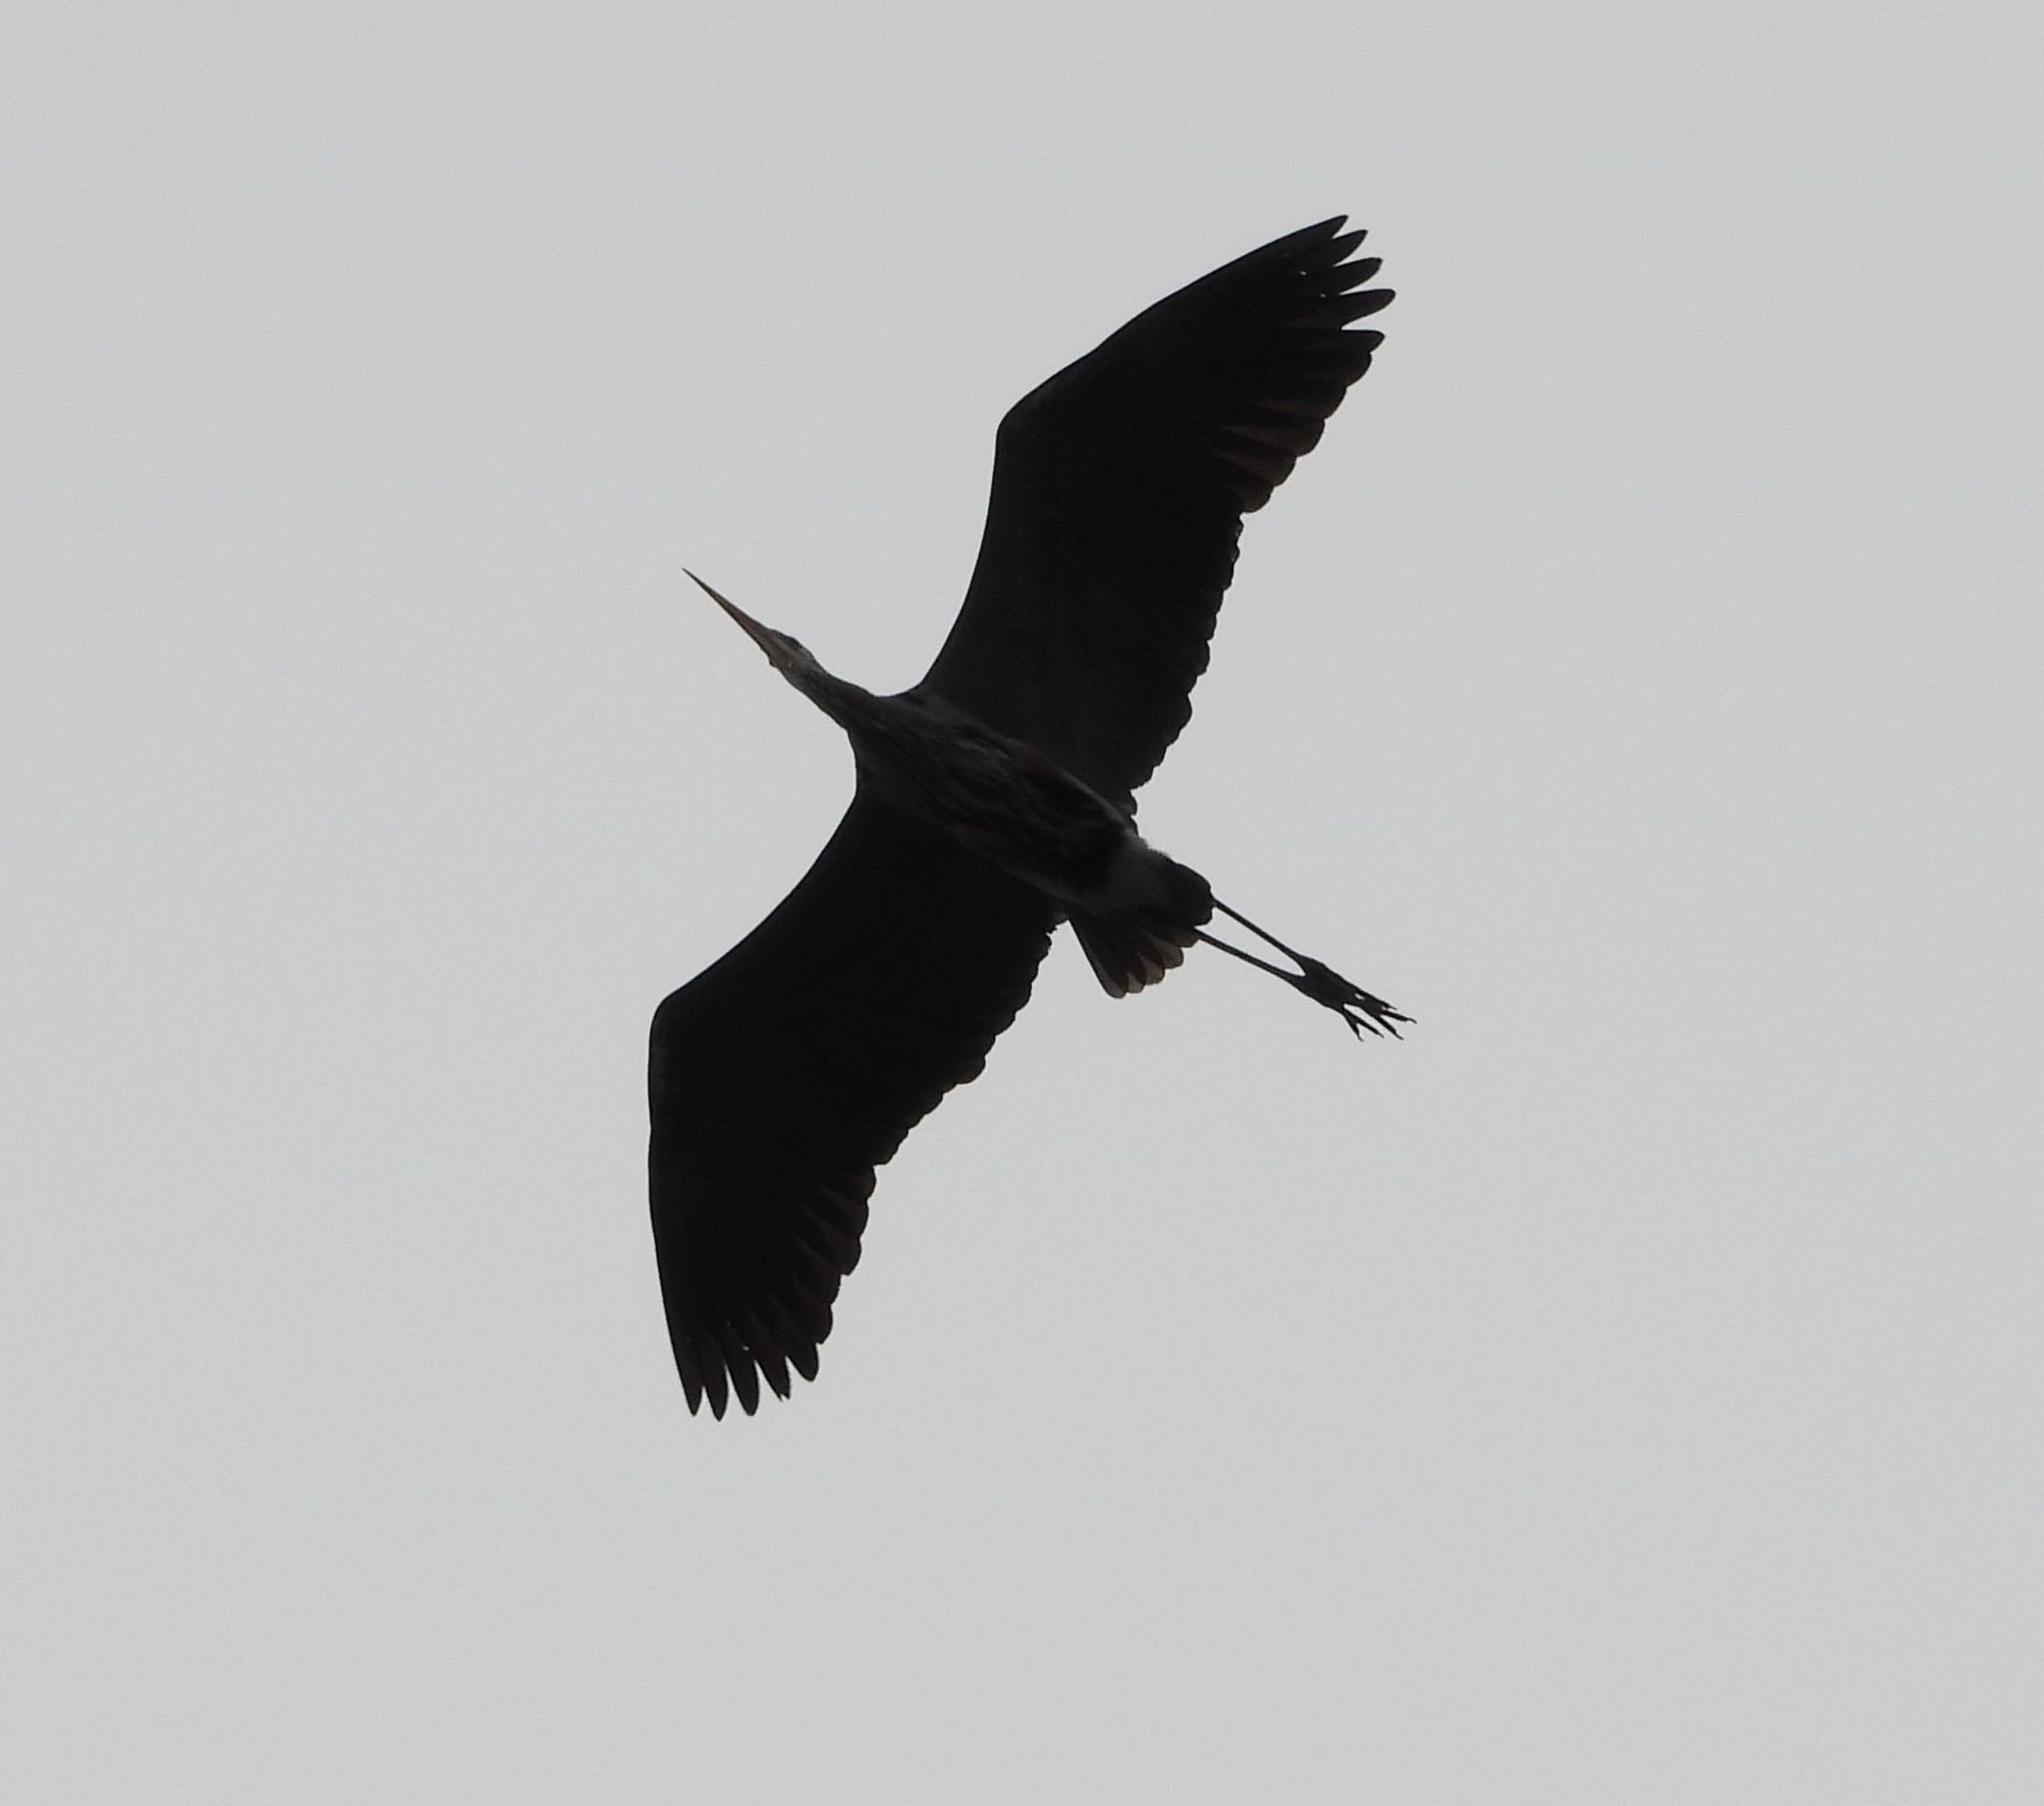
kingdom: Animalia
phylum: Chordata
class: Aves
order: Pelecaniformes
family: Ardeidae
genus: Ardea
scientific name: Ardea herodias
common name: Great blue heron
